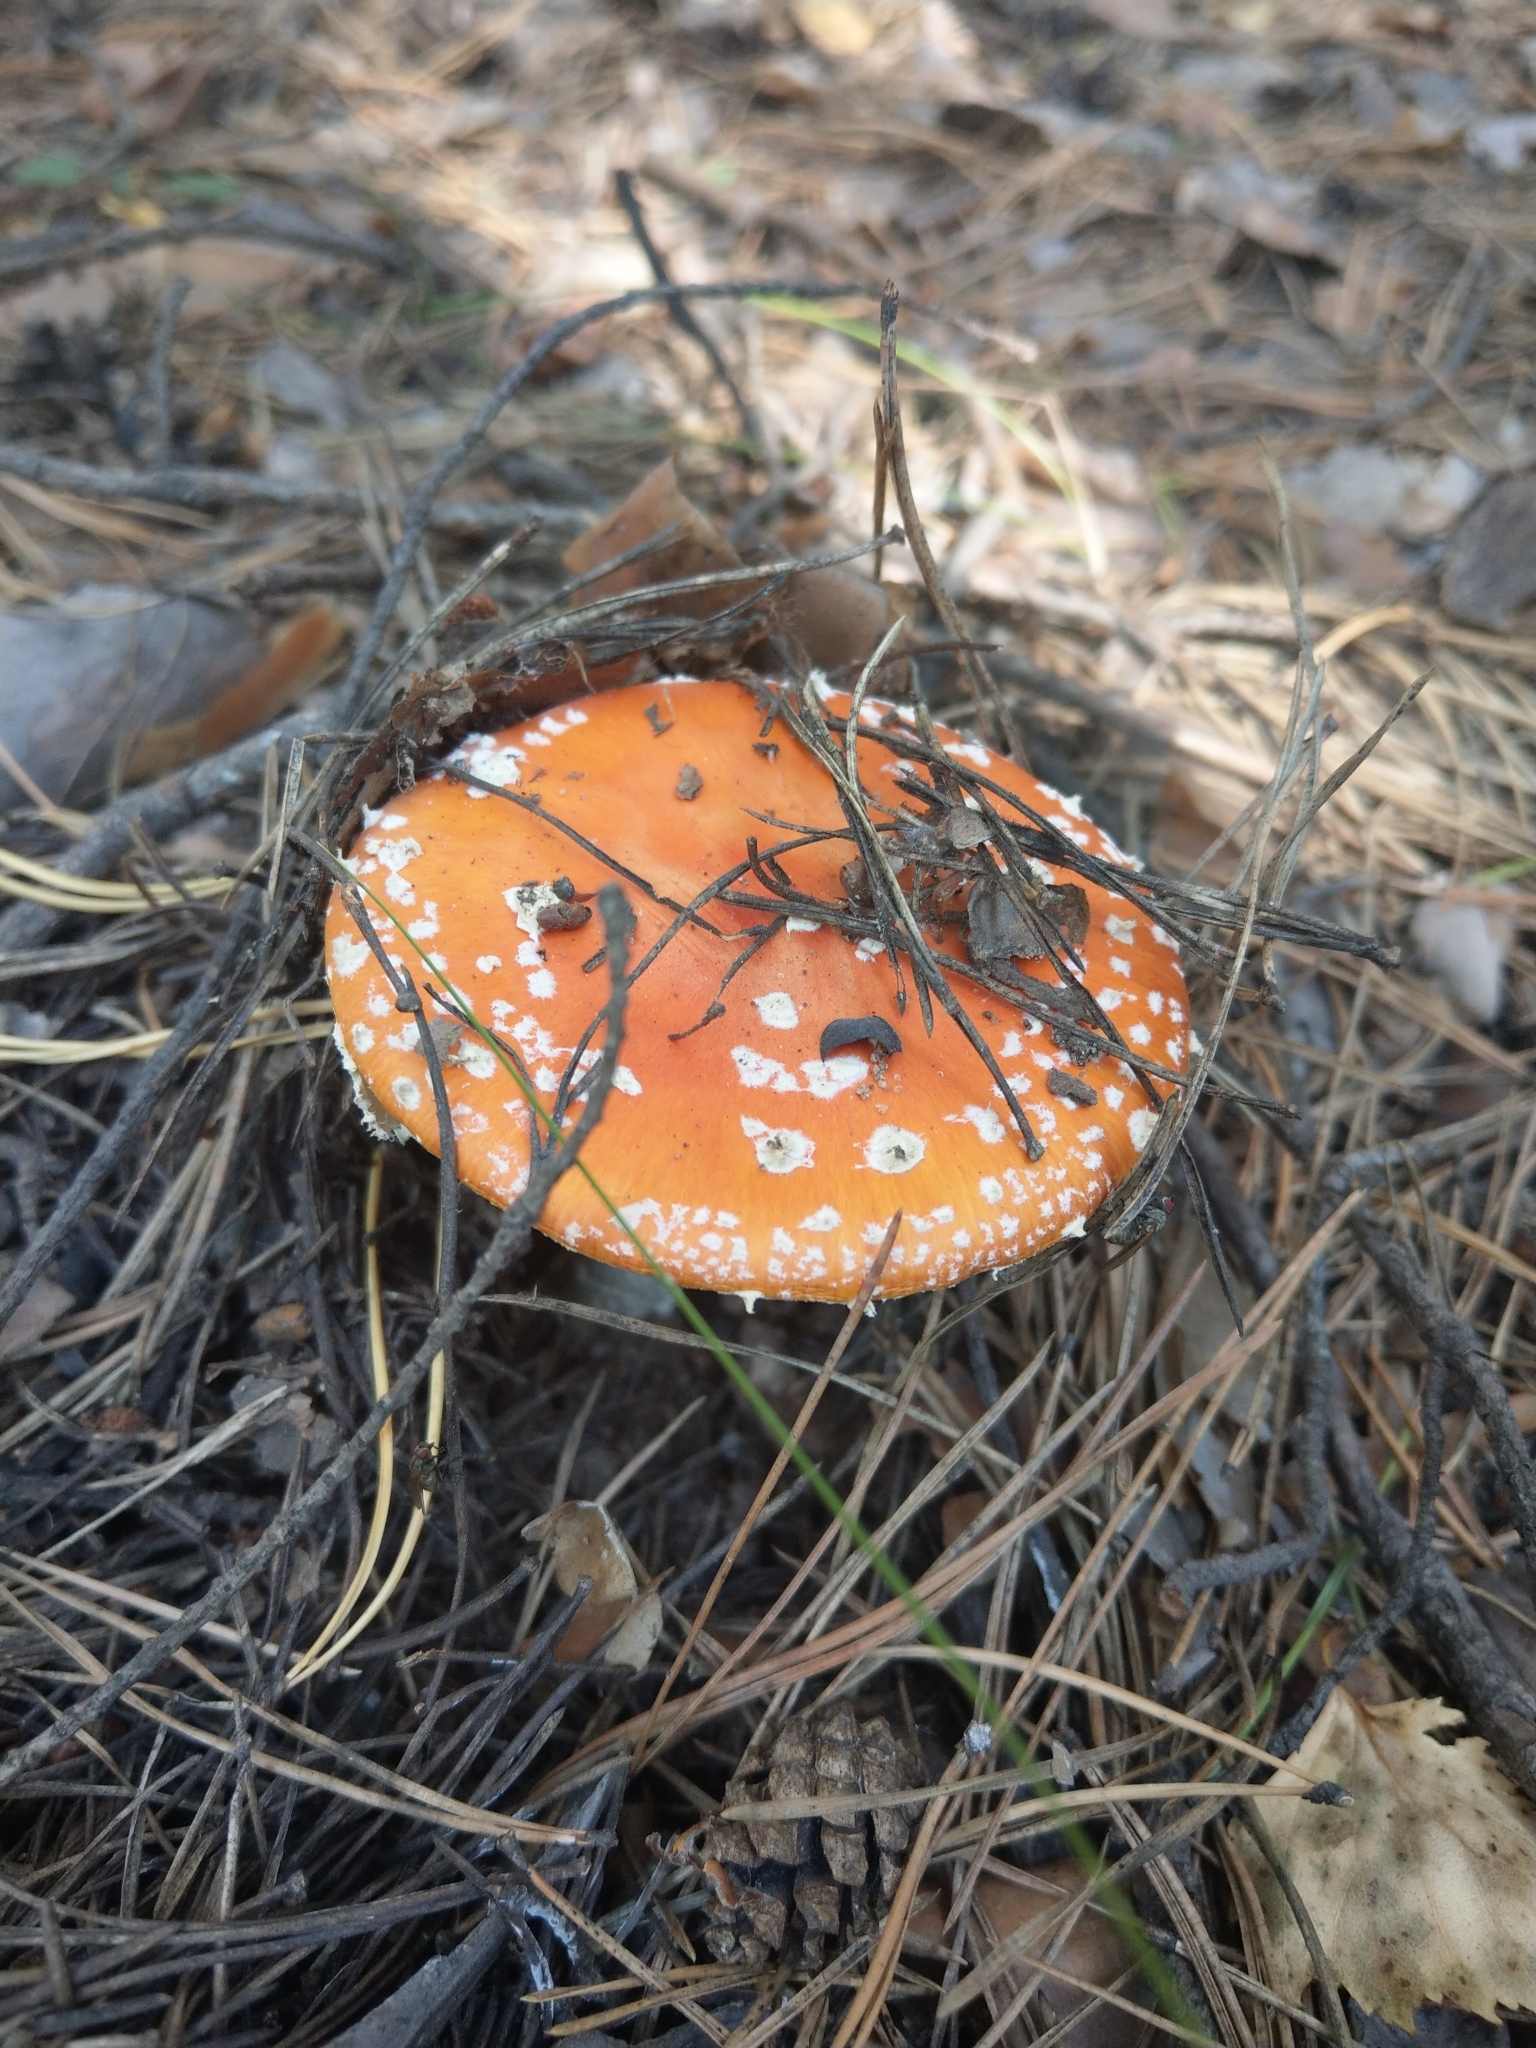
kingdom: Fungi
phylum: Basidiomycota
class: Agaricomycetes
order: Agaricales
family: Amanitaceae
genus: Amanita
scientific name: Amanita muscaria
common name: Fly agaric
